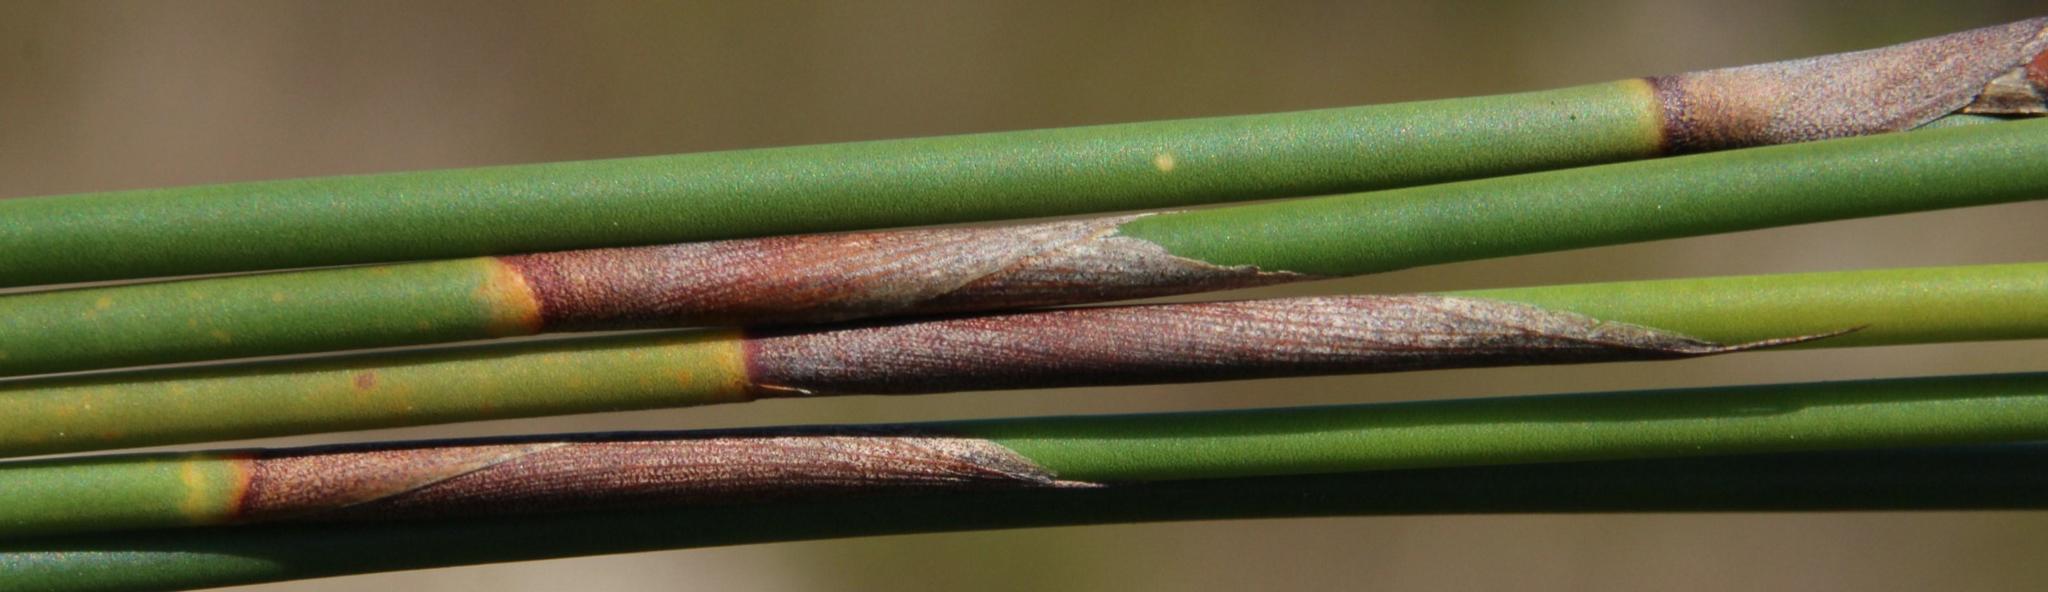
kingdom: Plantae
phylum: Tracheophyta
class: Liliopsida
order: Poales
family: Restionaceae
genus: Cannomois
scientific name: Cannomois congesta
